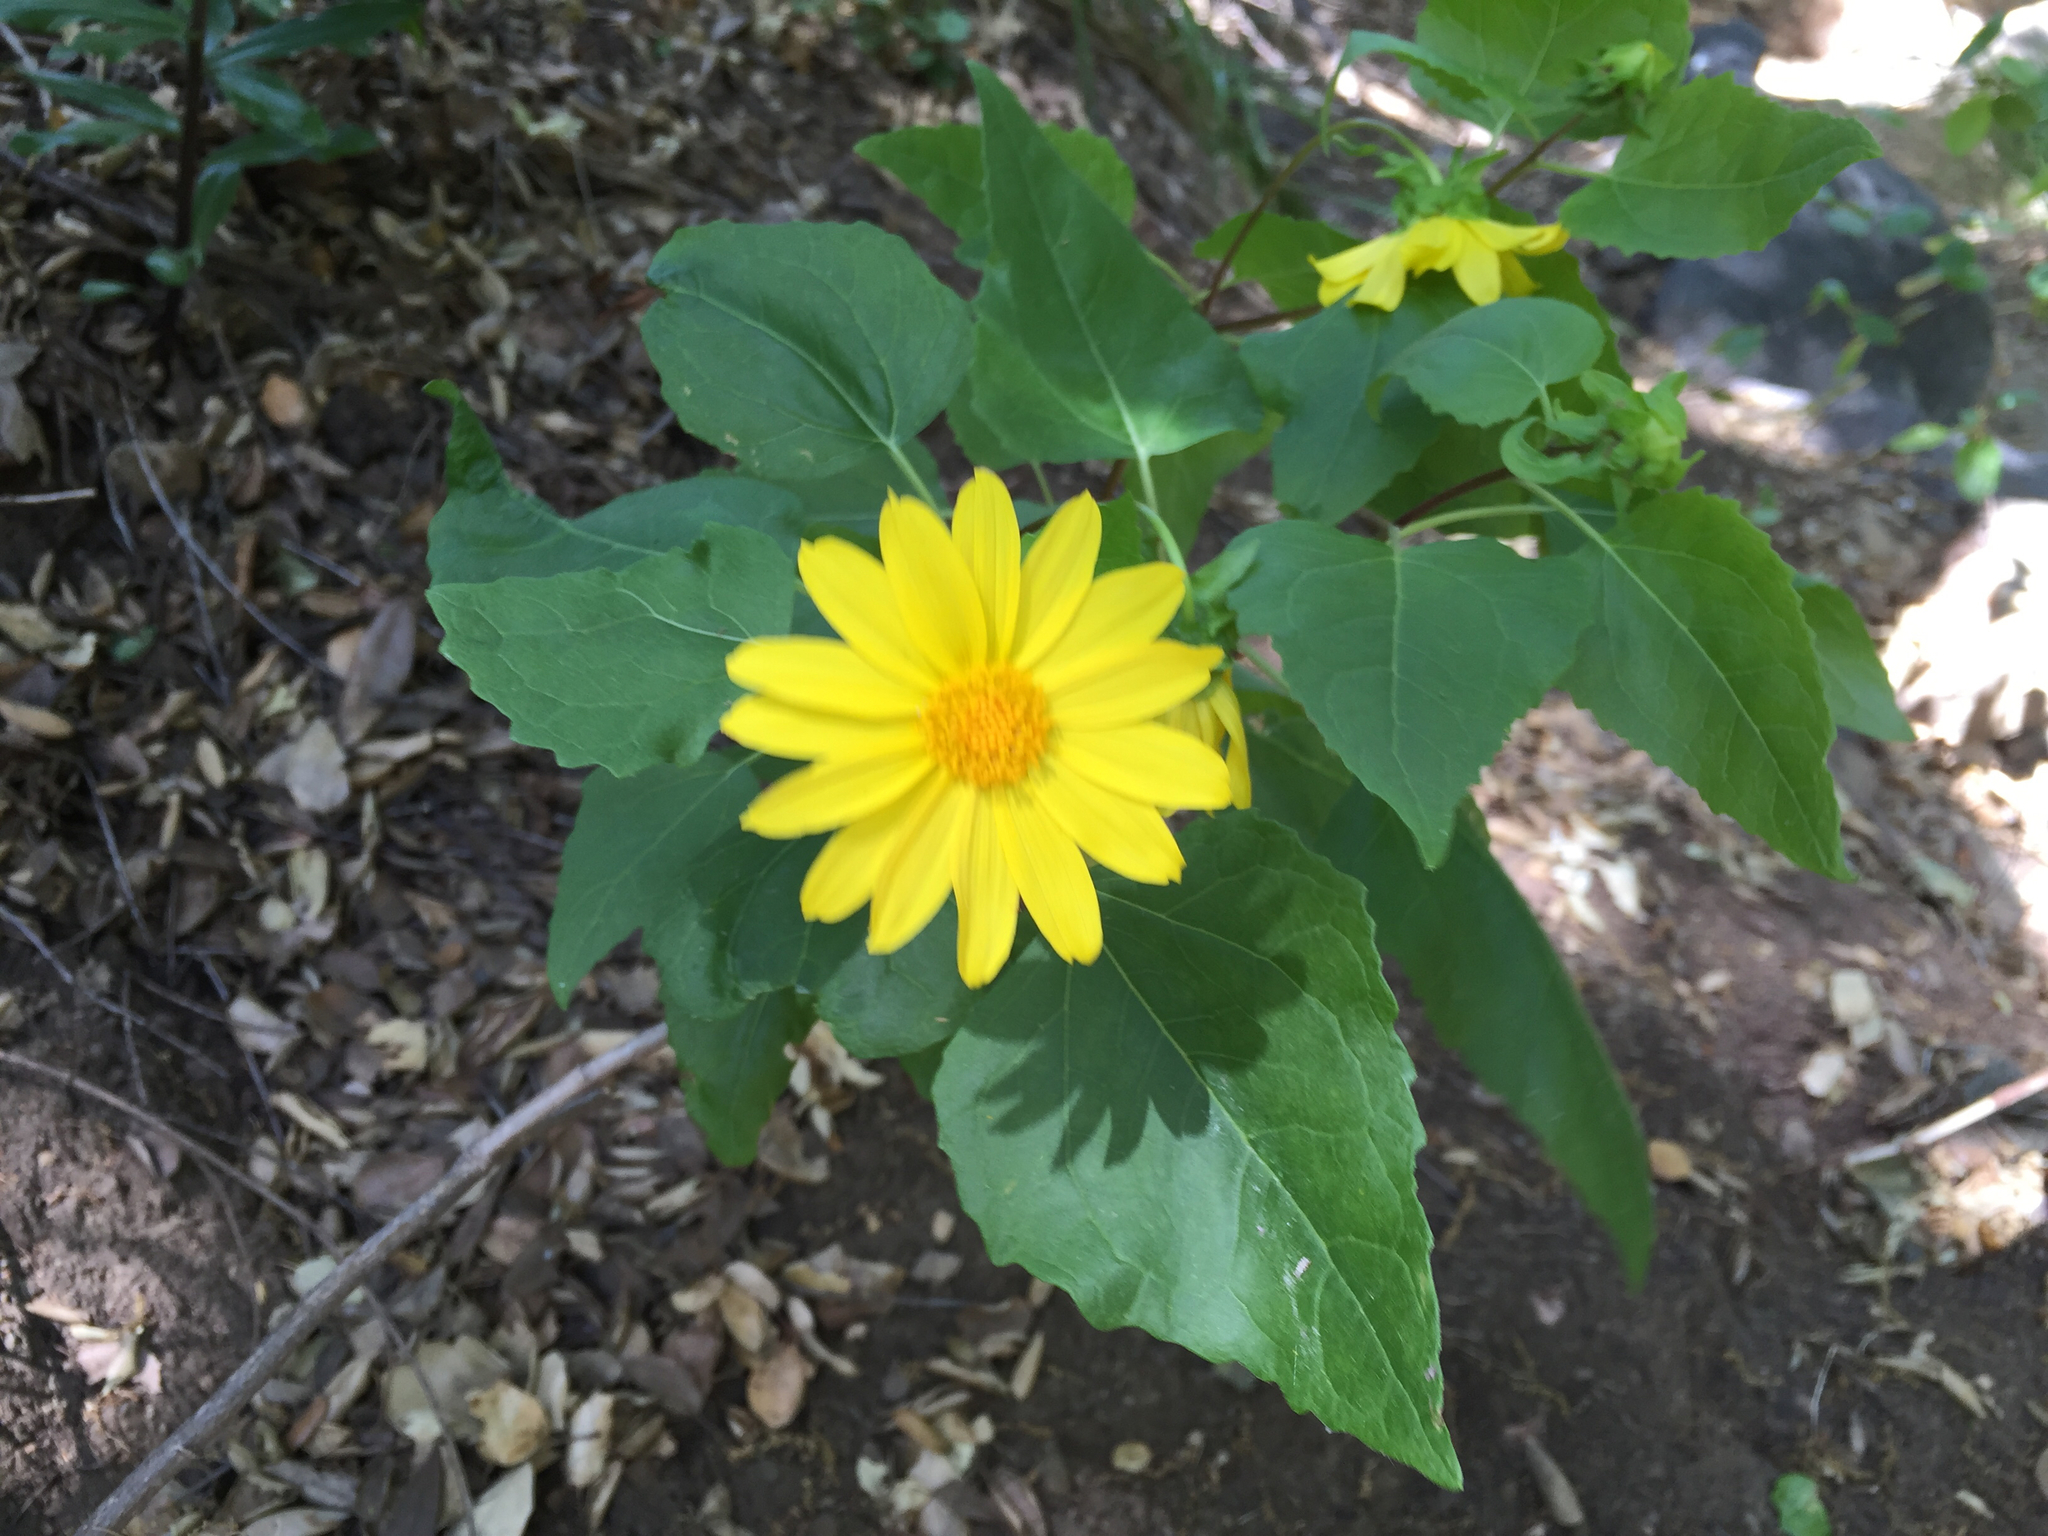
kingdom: Plantae
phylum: Tracheophyta
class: Magnoliopsida
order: Asterales
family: Asteraceae
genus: Venegasia
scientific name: Venegasia carpesioides
